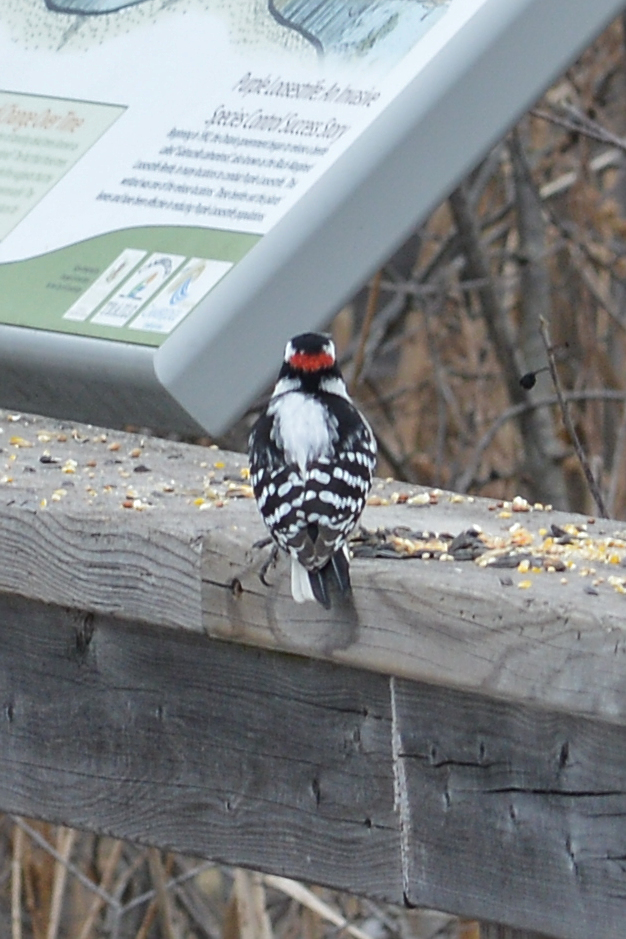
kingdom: Animalia
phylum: Chordata
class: Aves
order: Piciformes
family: Picidae
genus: Dryobates
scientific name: Dryobates pubescens
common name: Downy woodpecker
